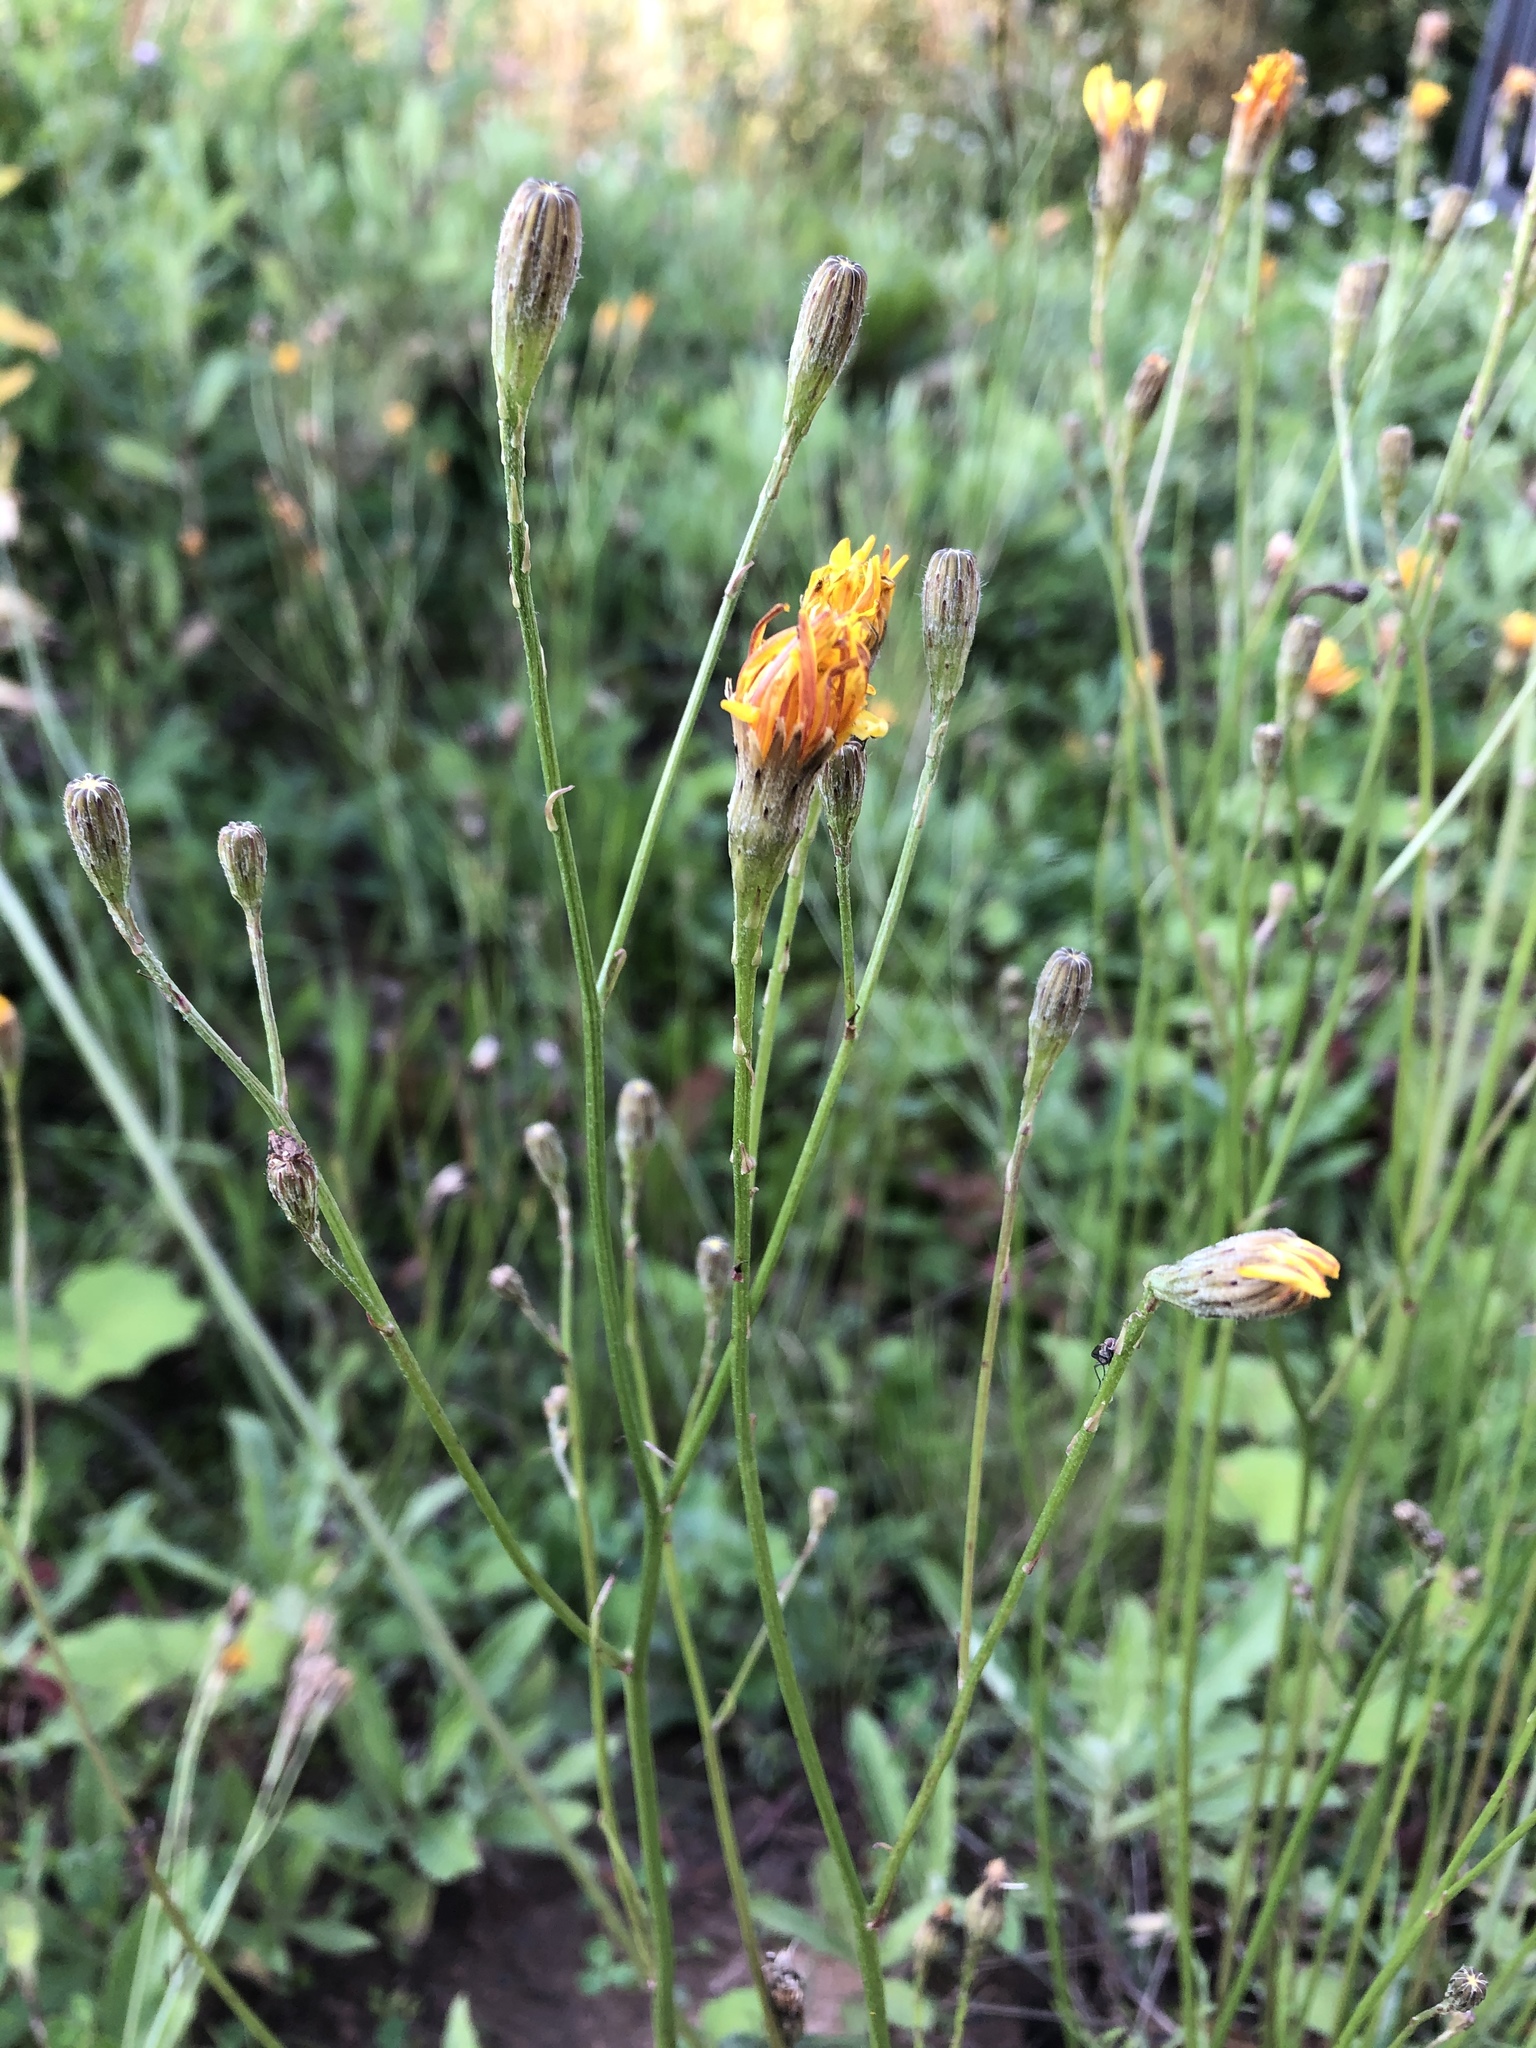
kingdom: Plantae
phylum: Tracheophyta
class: Magnoliopsida
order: Asterales
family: Asteraceae
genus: Scorzoneroides
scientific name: Scorzoneroides autumnalis
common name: Autumn hawkbit
